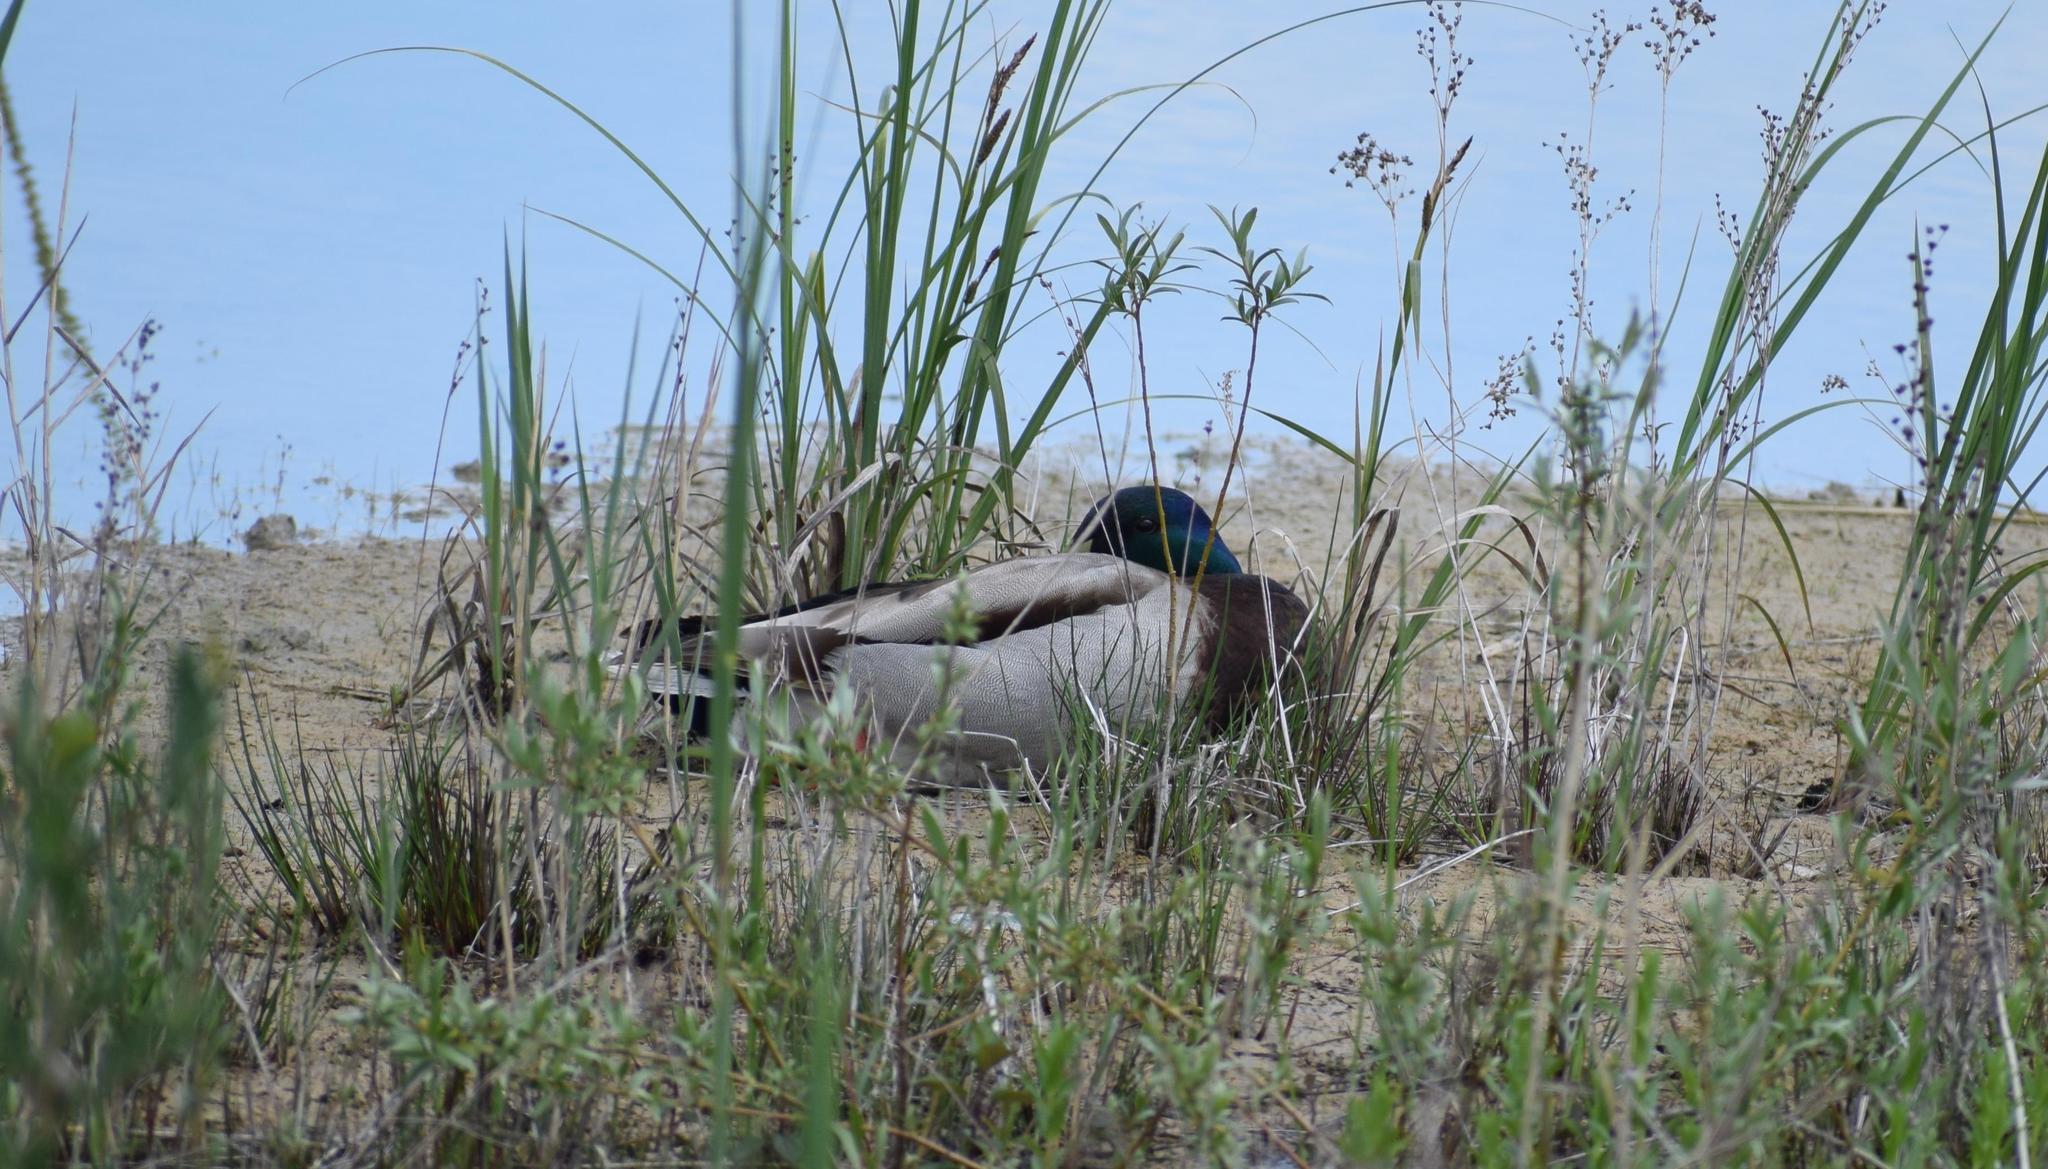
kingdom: Animalia
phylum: Chordata
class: Aves
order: Anseriformes
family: Anatidae
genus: Anas
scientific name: Anas platyrhynchos
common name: Mallard
